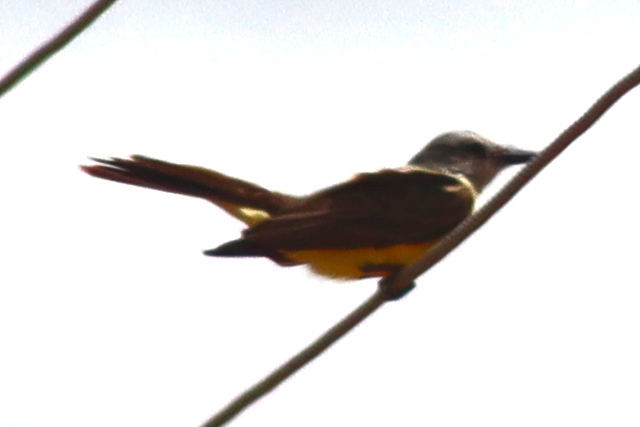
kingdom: Animalia
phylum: Chordata
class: Aves
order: Passeriformes
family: Tyrannidae
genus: Tyrannus
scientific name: Tyrannus melancholicus
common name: Tropical kingbird
